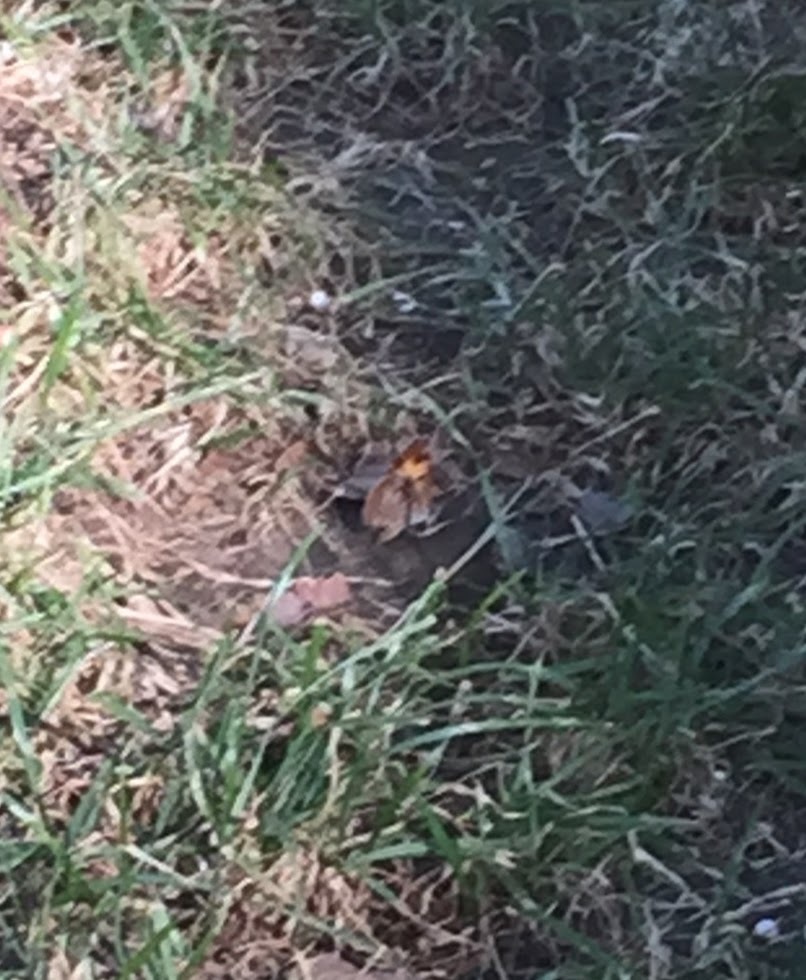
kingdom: Animalia
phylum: Arthropoda
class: Insecta
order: Lepidoptera
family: Lycaenidae
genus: Feniseca
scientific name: Feniseca tarquinius
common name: Harvester
